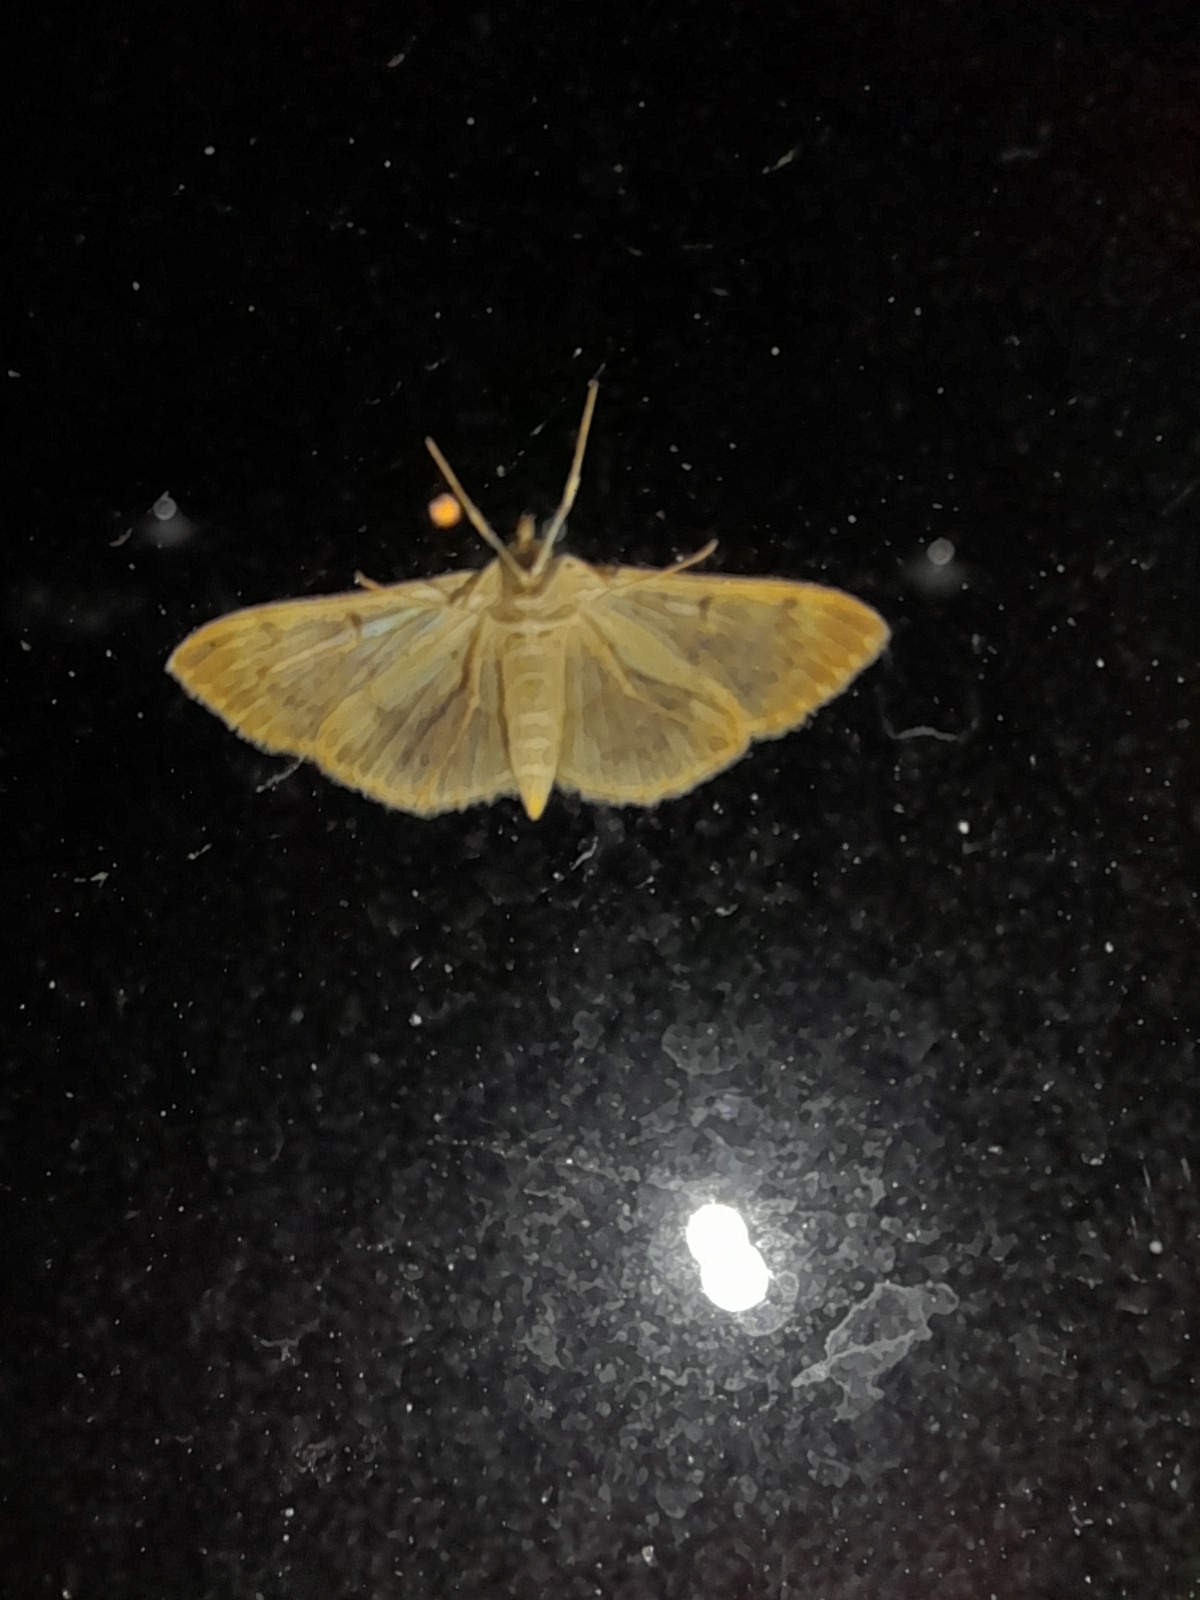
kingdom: Animalia
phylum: Arthropoda
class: Insecta
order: Lepidoptera
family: Crambidae
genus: Patania
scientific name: Patania ruralis
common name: Mother of pearl
